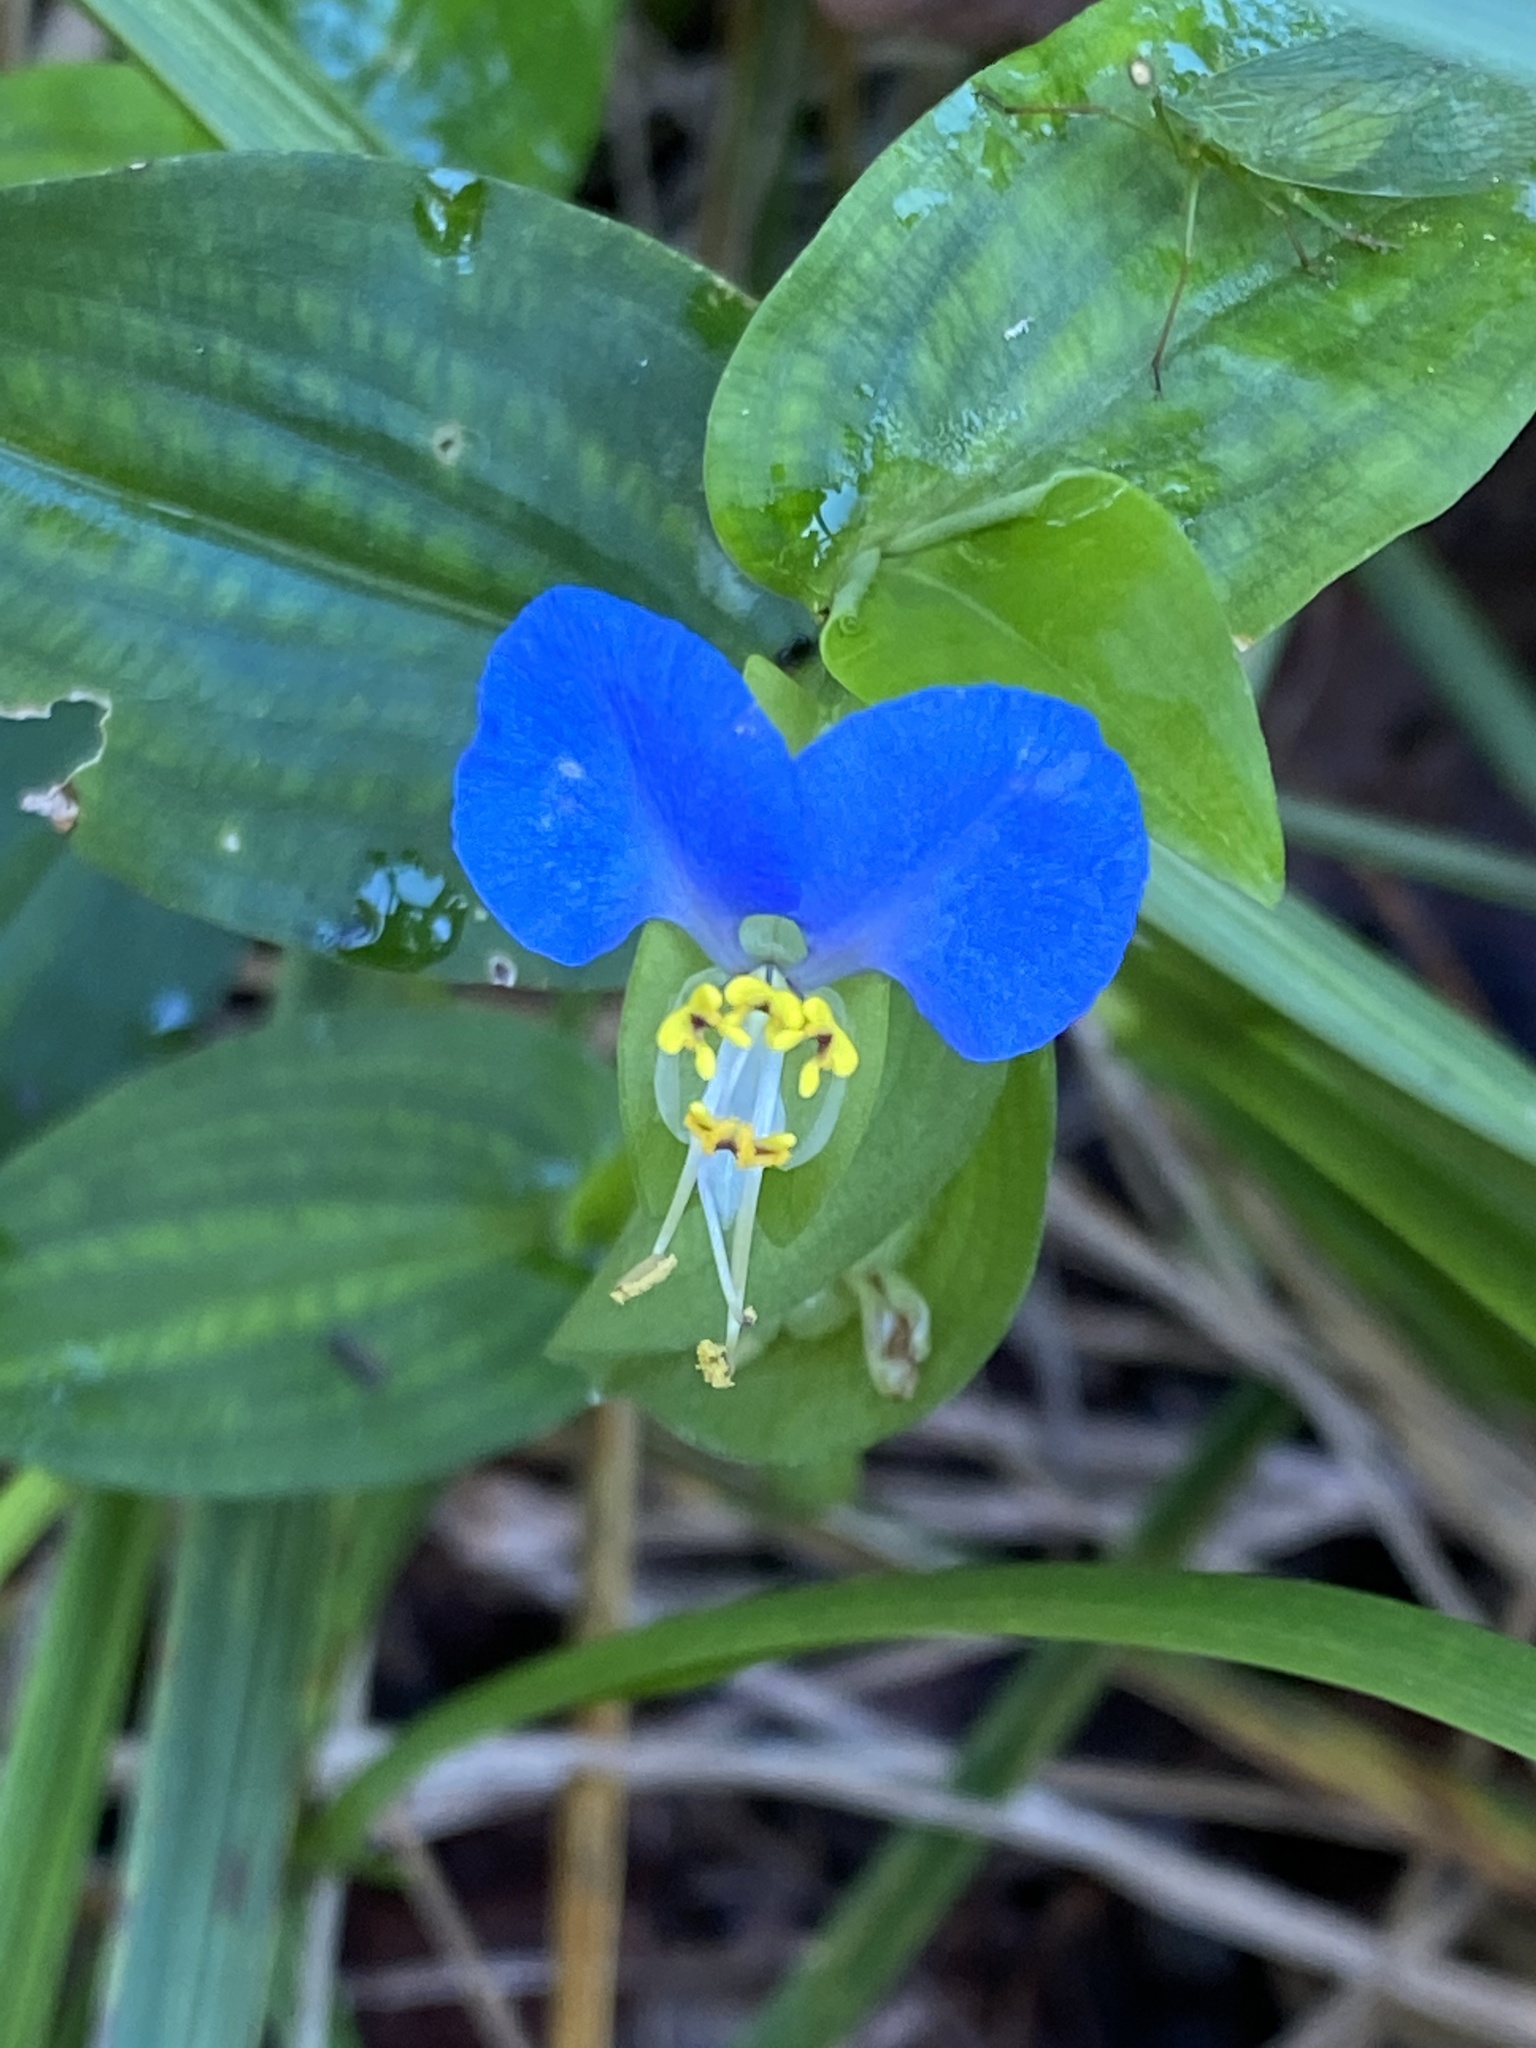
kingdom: Plantae
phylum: Tracheophyta
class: Liliopsida
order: Commelinales
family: Commelinaceae
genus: Commelina
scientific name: Commelina communis
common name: Asiatic dayflower
